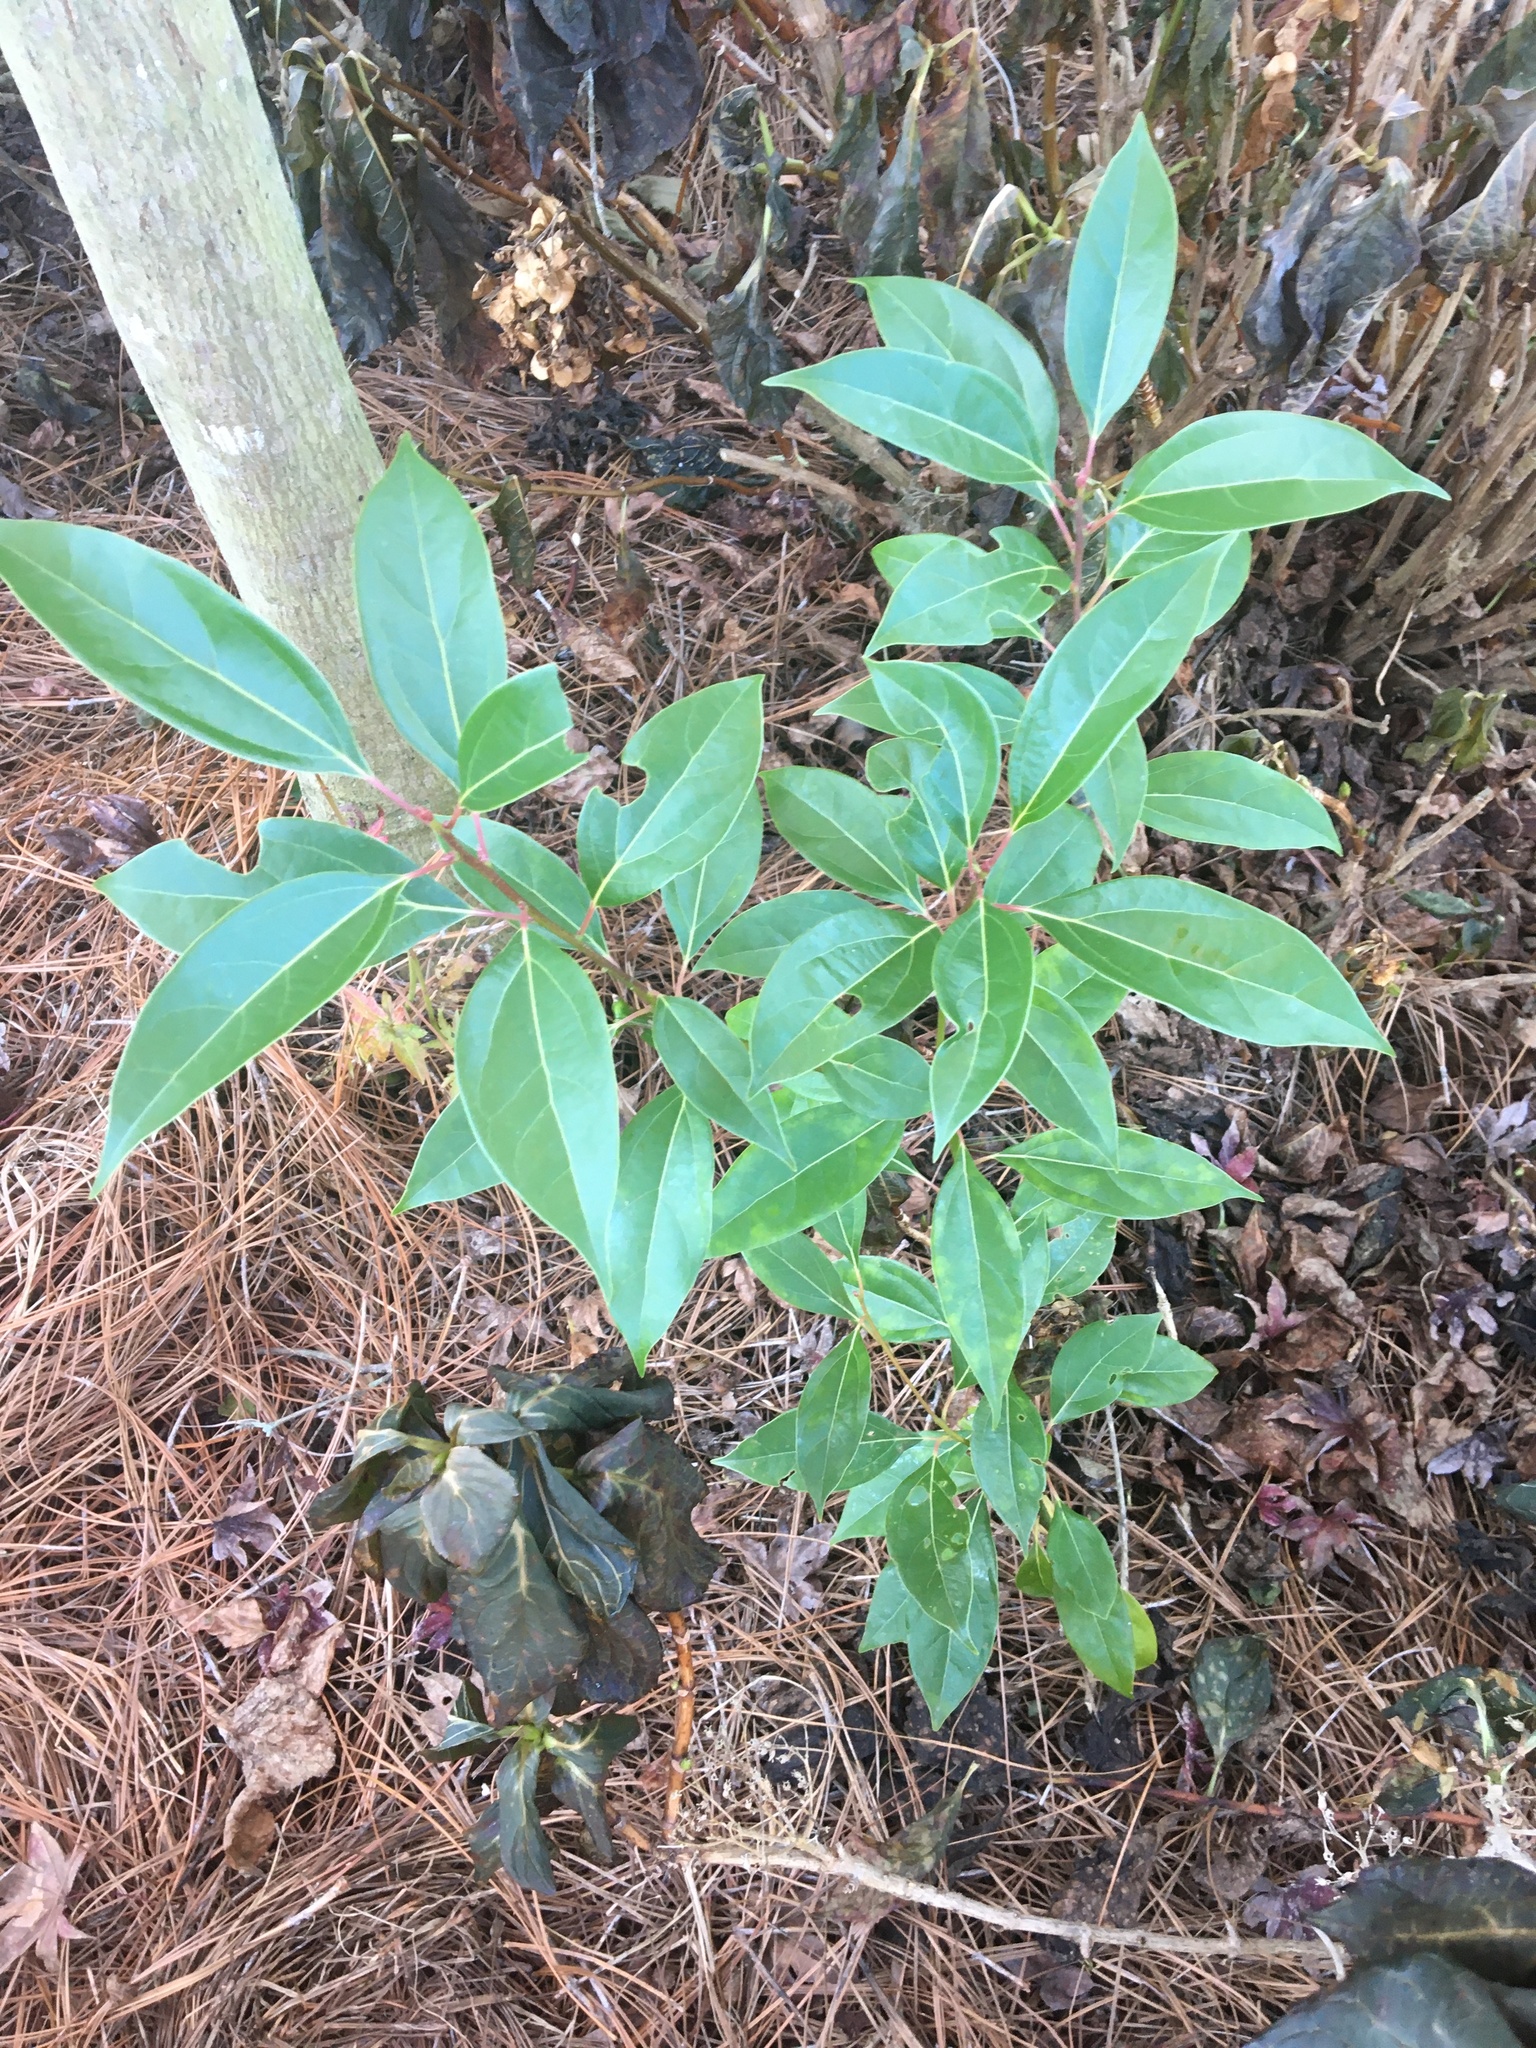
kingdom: Plantae
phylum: Tracheophyta
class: Magnoliopsida
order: Laurales
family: Lauraceae
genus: Cinnamomum
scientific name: Cinnamomum camphora
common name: Camphortree
